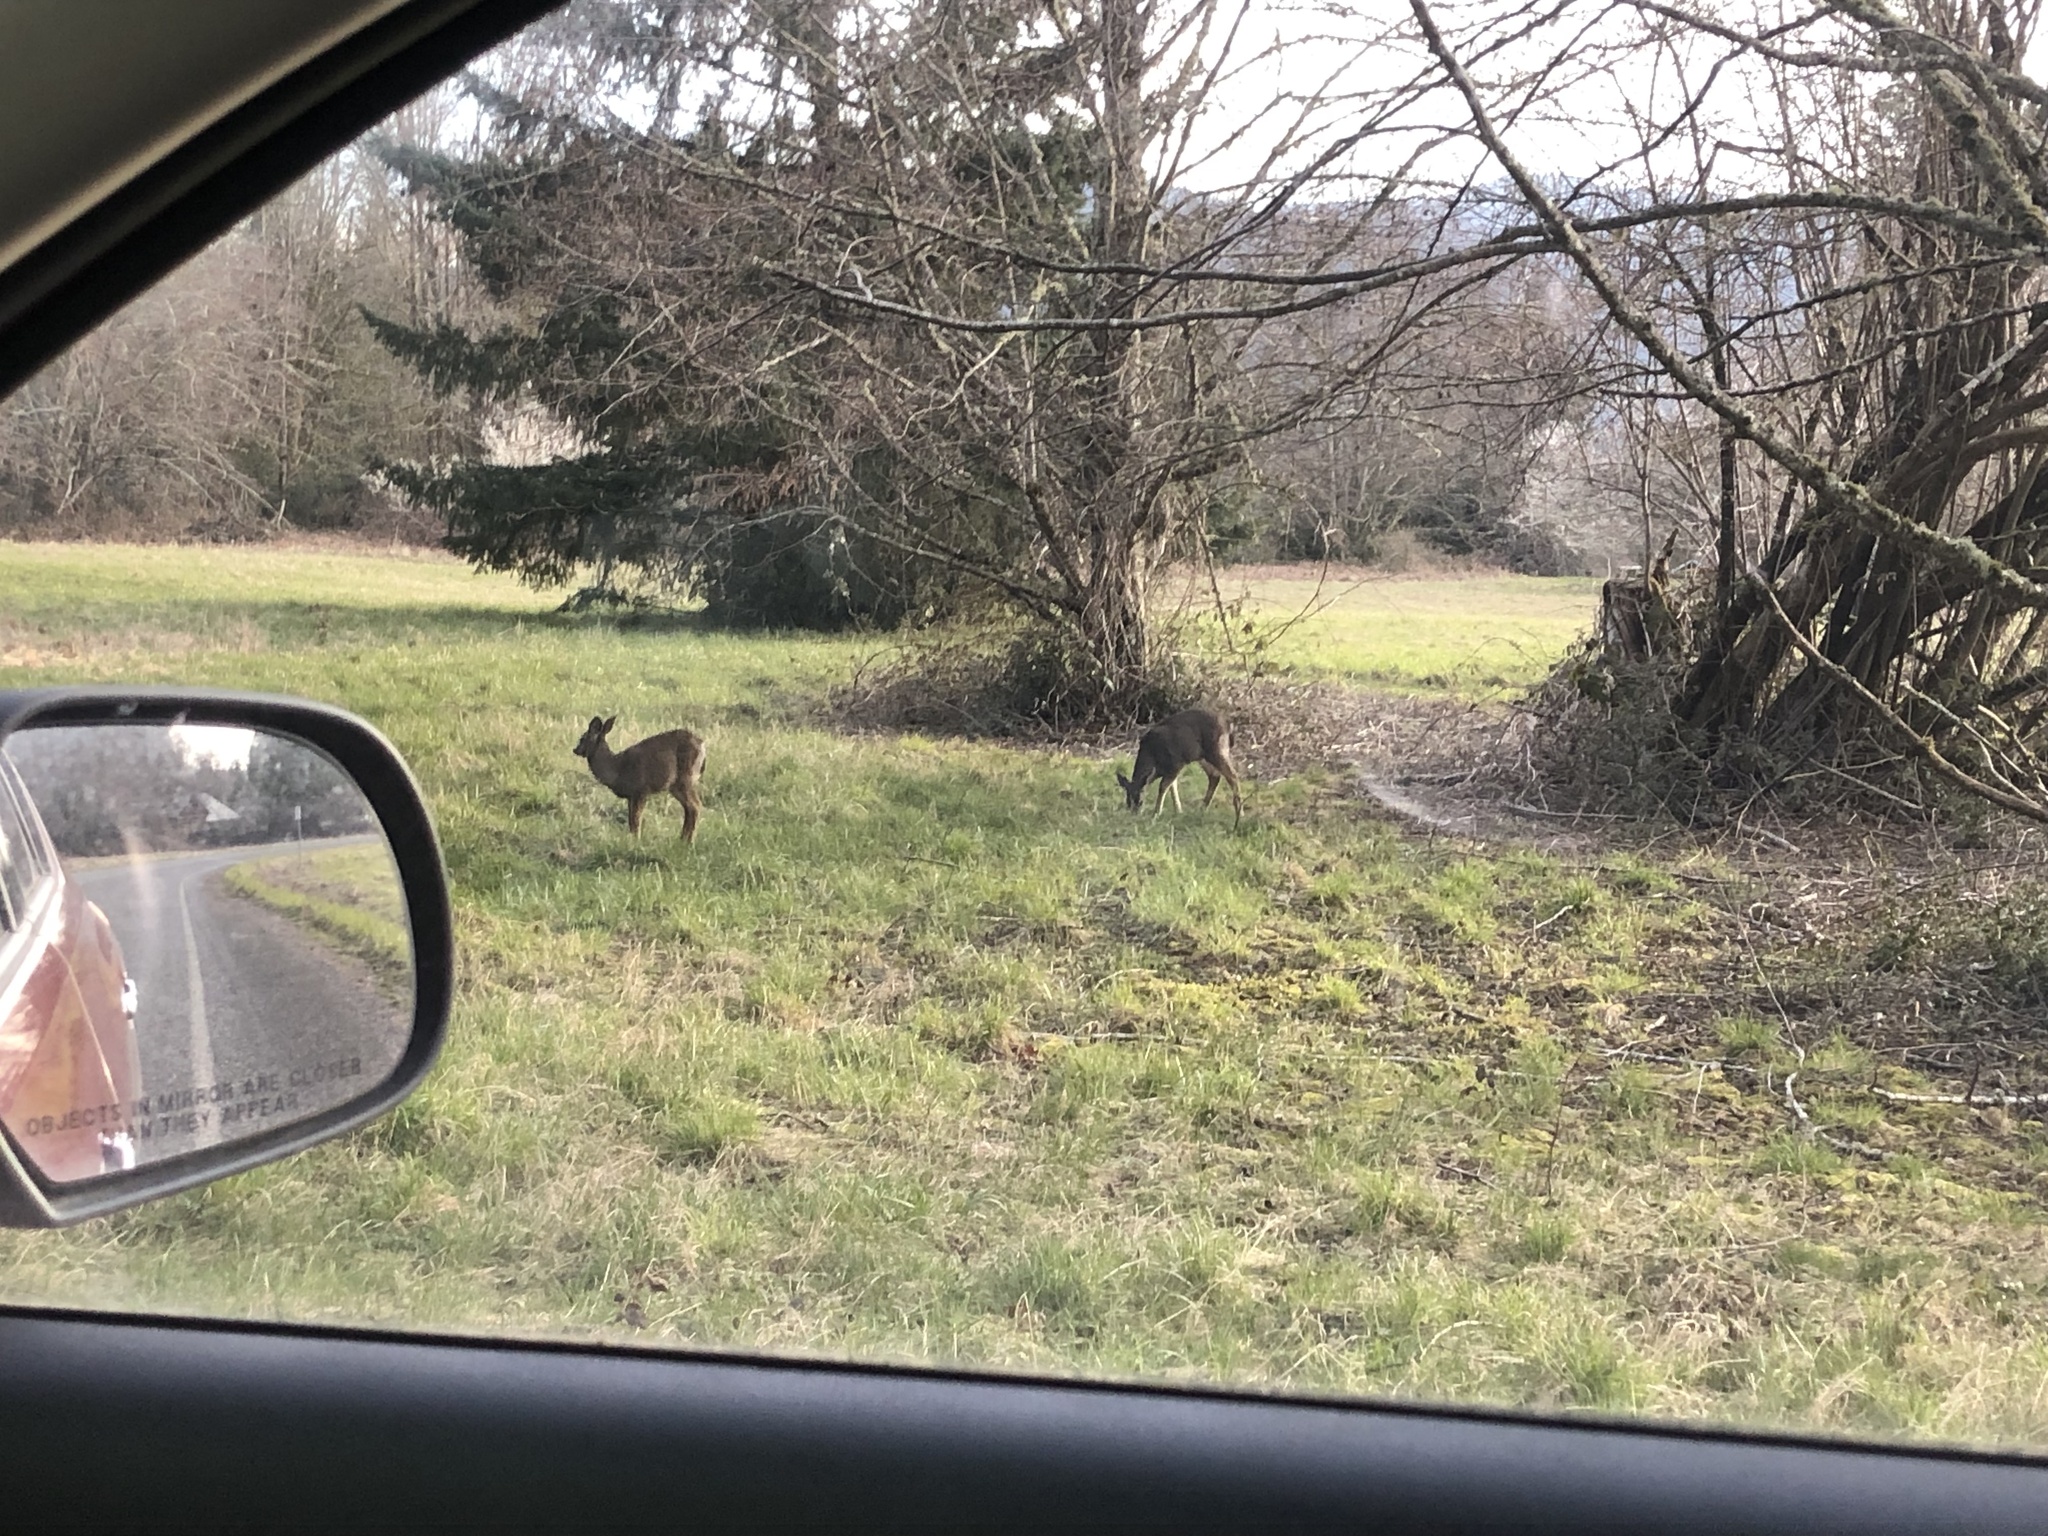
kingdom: Animalia
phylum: Chordata
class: Mammalia
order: Artiodactyla
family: Cervidae
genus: Odocoileus
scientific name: Odocoileus hemionus
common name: Mule deer
